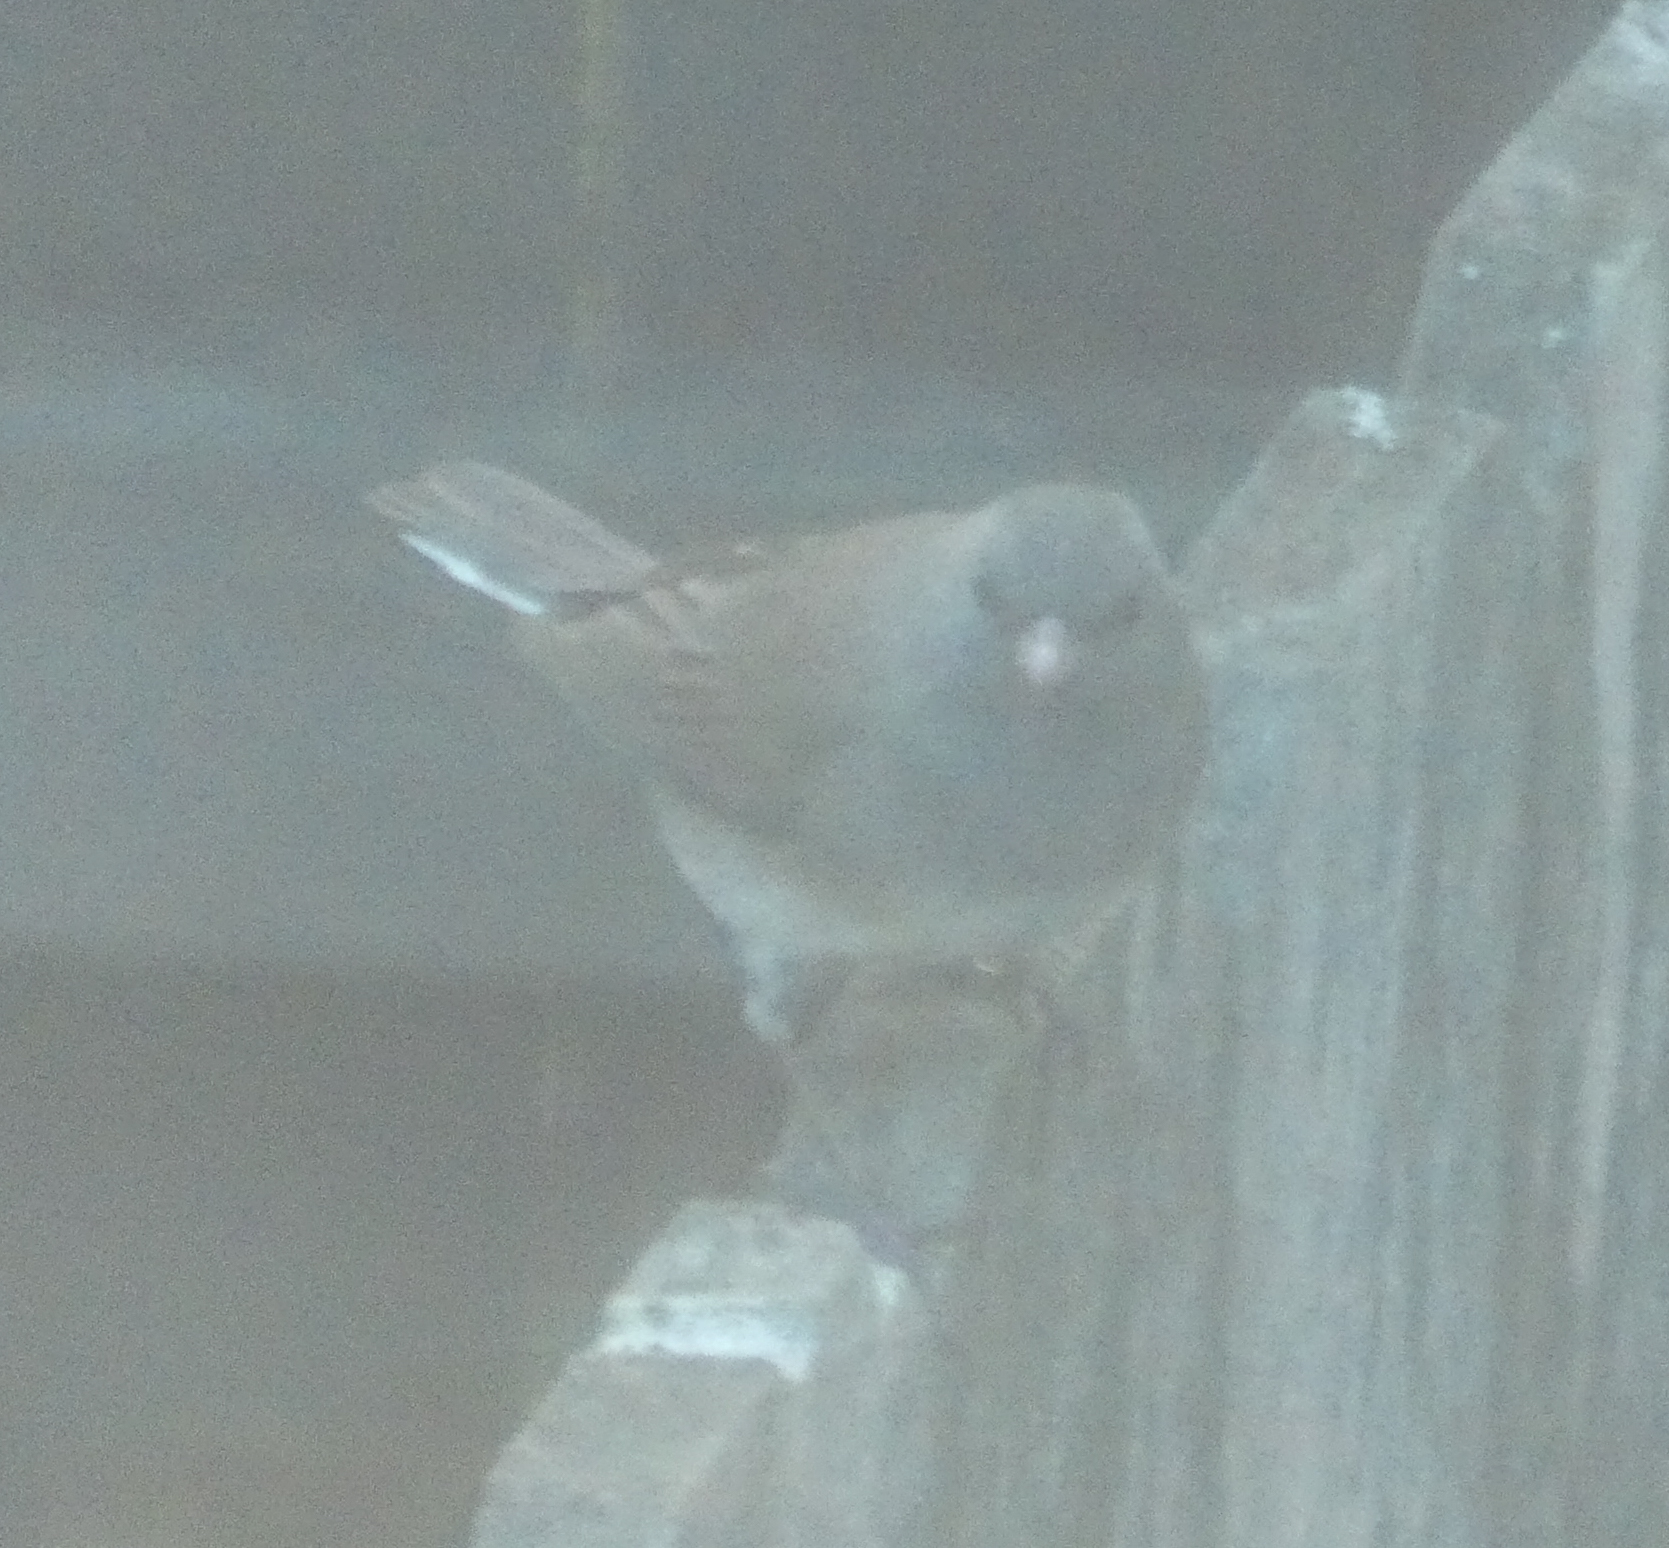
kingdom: Animalia
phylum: Chordata
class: Aves
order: Passeriformes
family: Passerellidae
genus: Junco
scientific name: Junco hyemalis
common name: Dark-eyed junco
